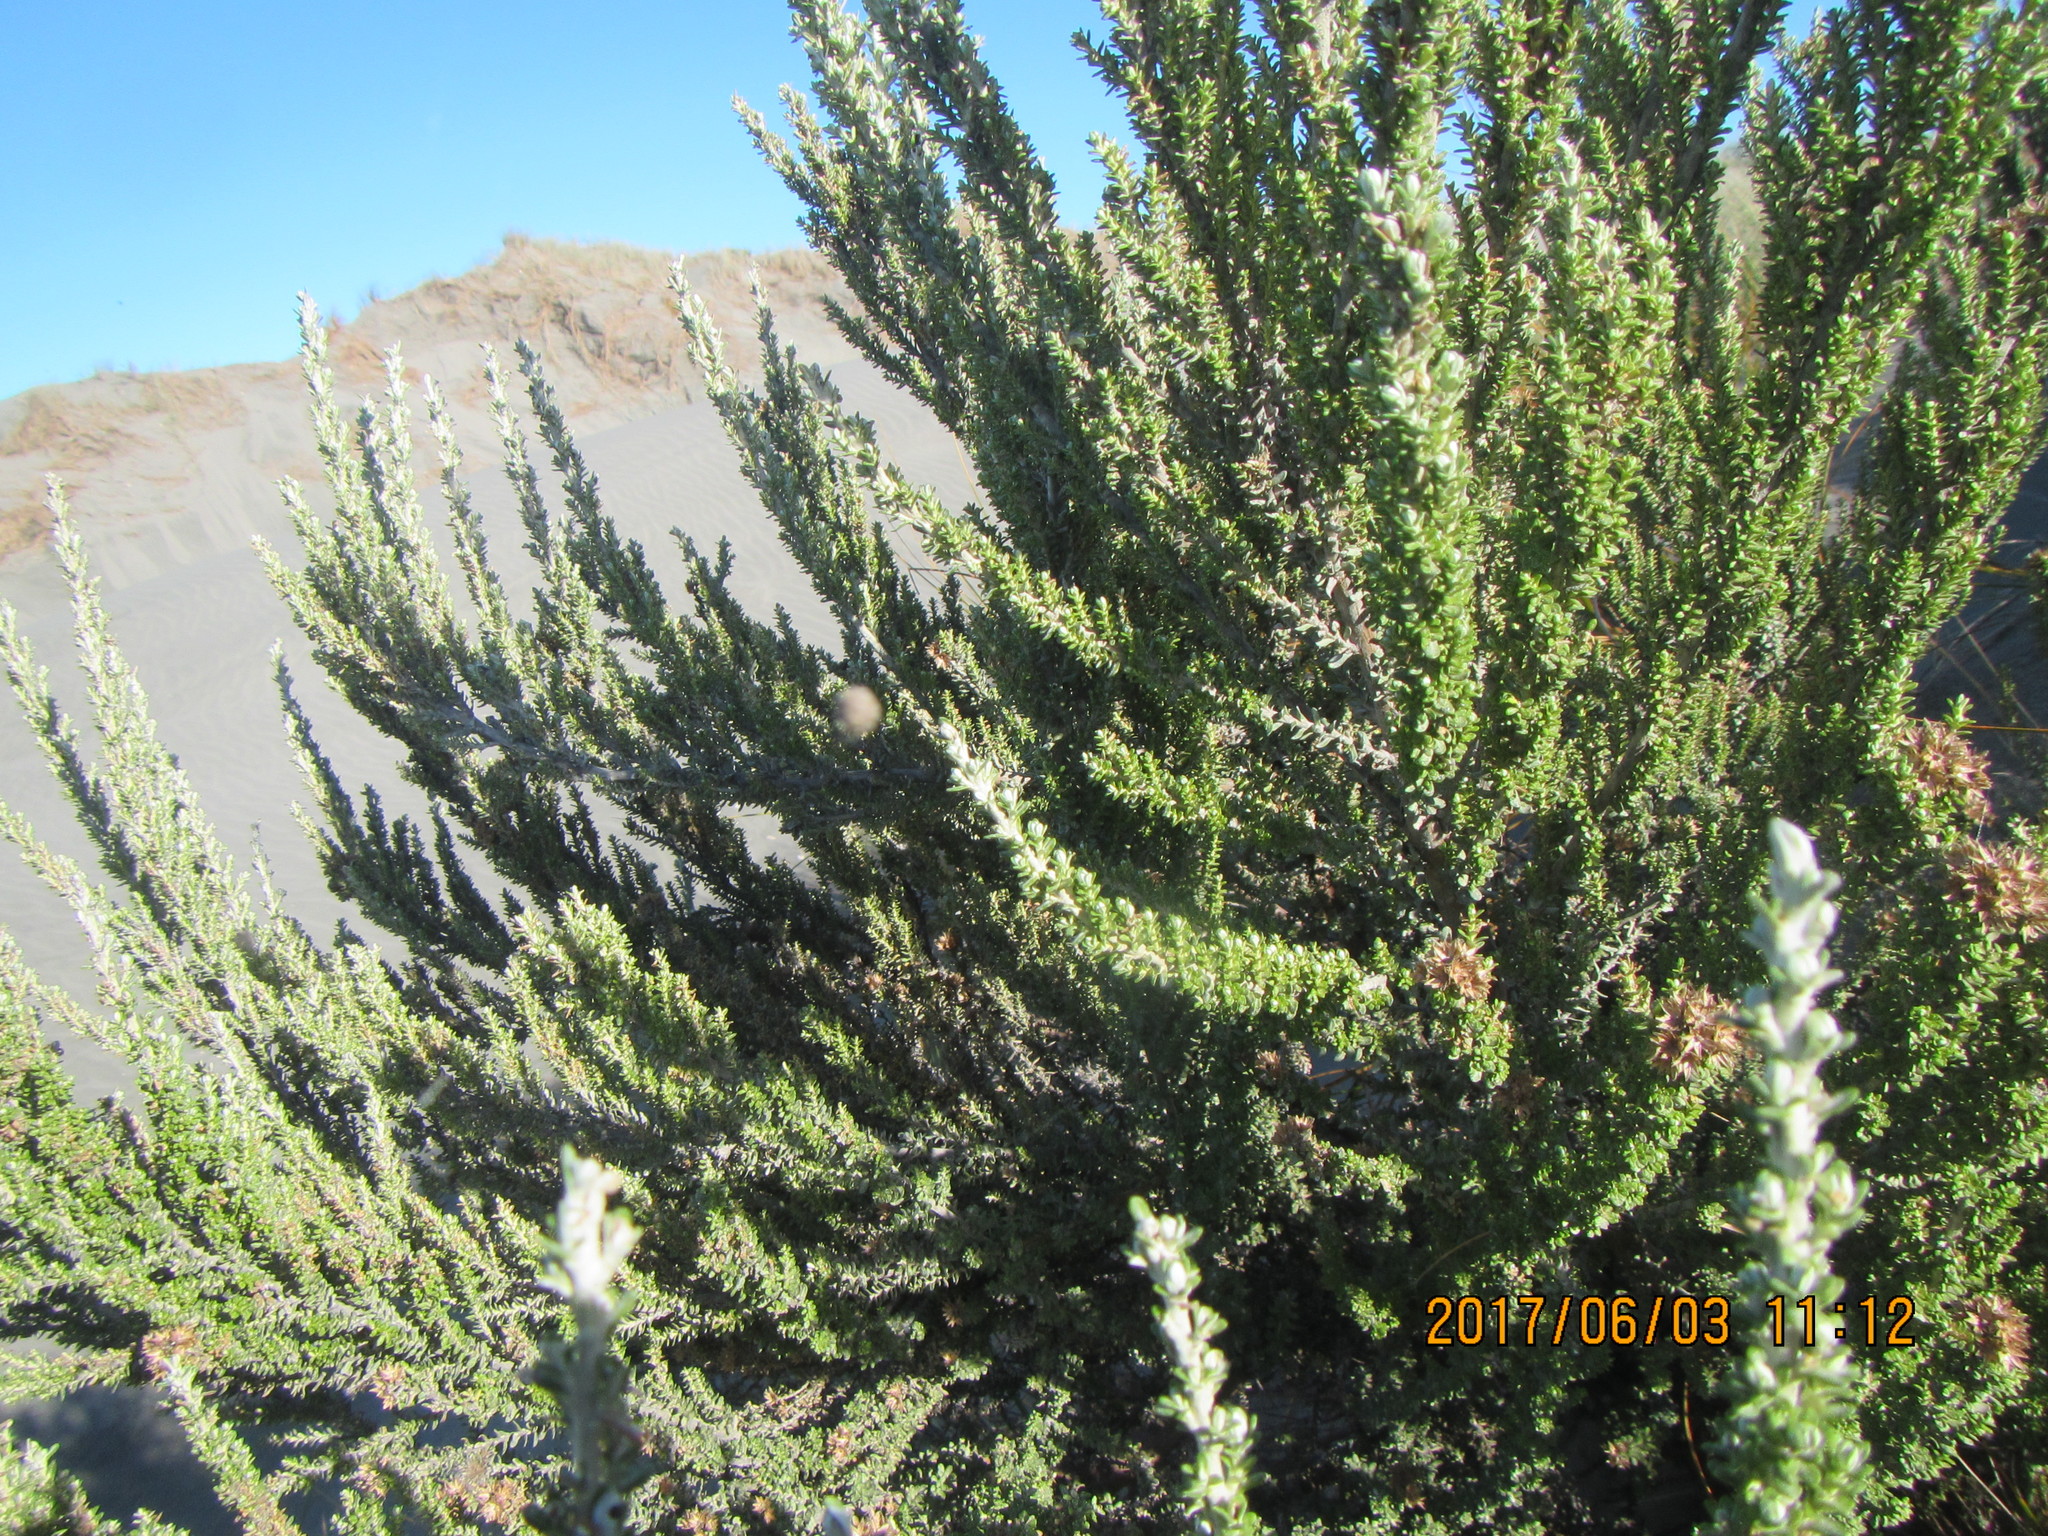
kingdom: Plantae
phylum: Tracheophyta
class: Magnoliopsida
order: Asterales
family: Asteraceae
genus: Ozothamnus
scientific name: Ozothamnus leptophyllus
